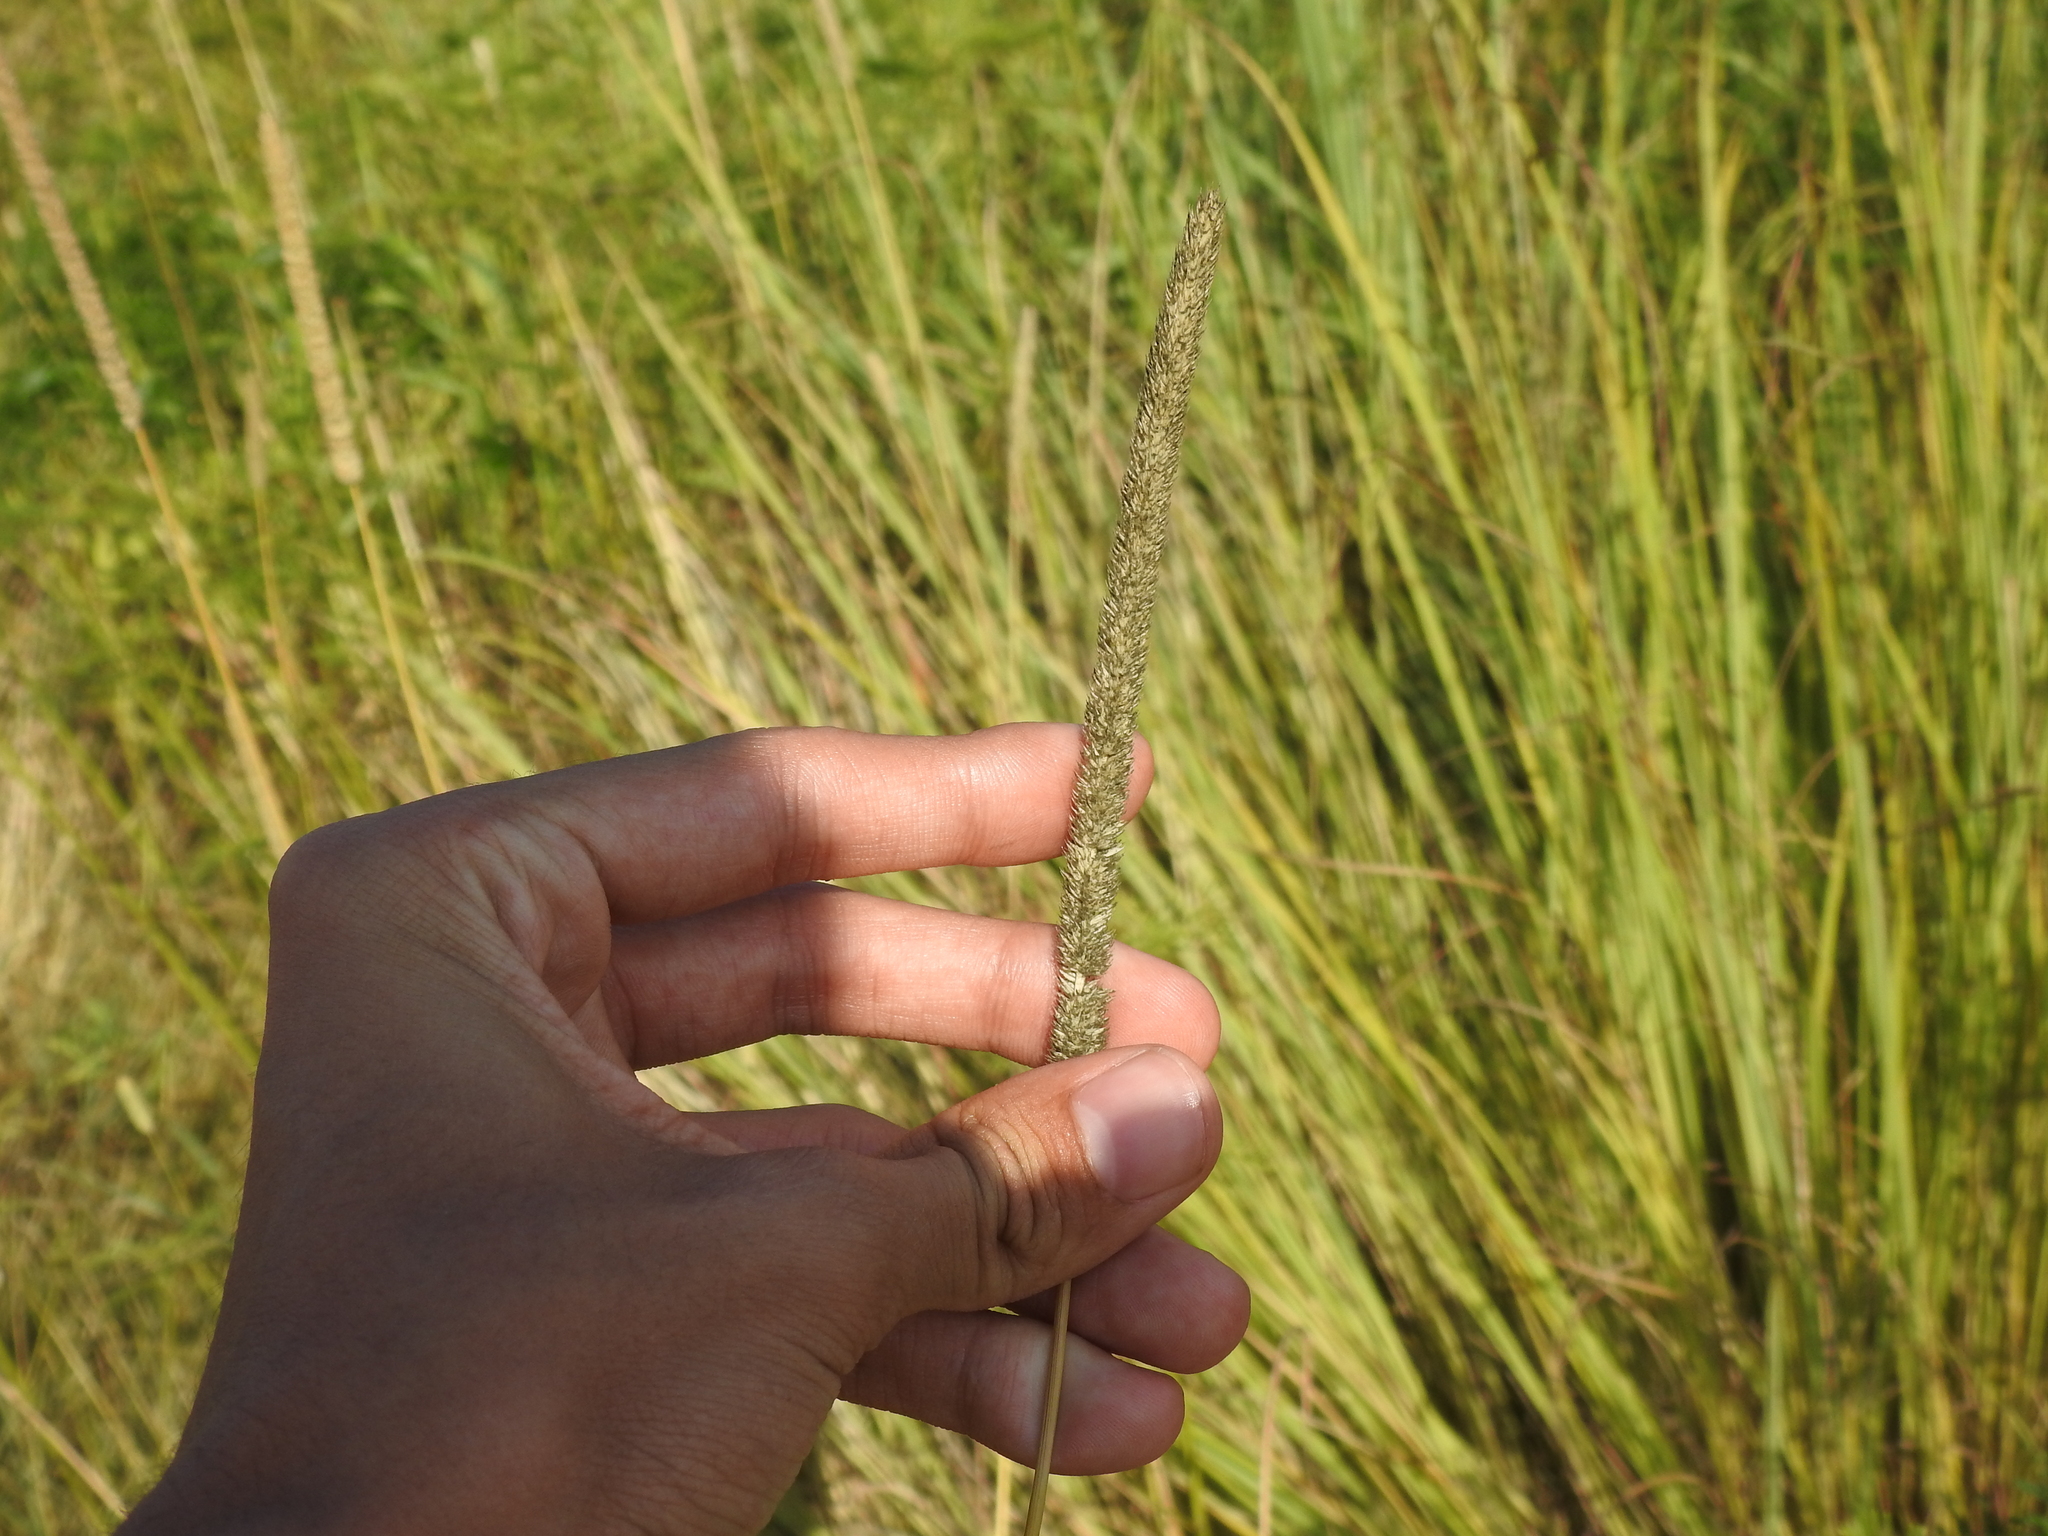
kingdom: Plantae
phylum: Tracheophyta
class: Liliopsida
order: Poales
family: Poaceae
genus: Phleum
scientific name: Phleum pratense
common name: Timothy grass
